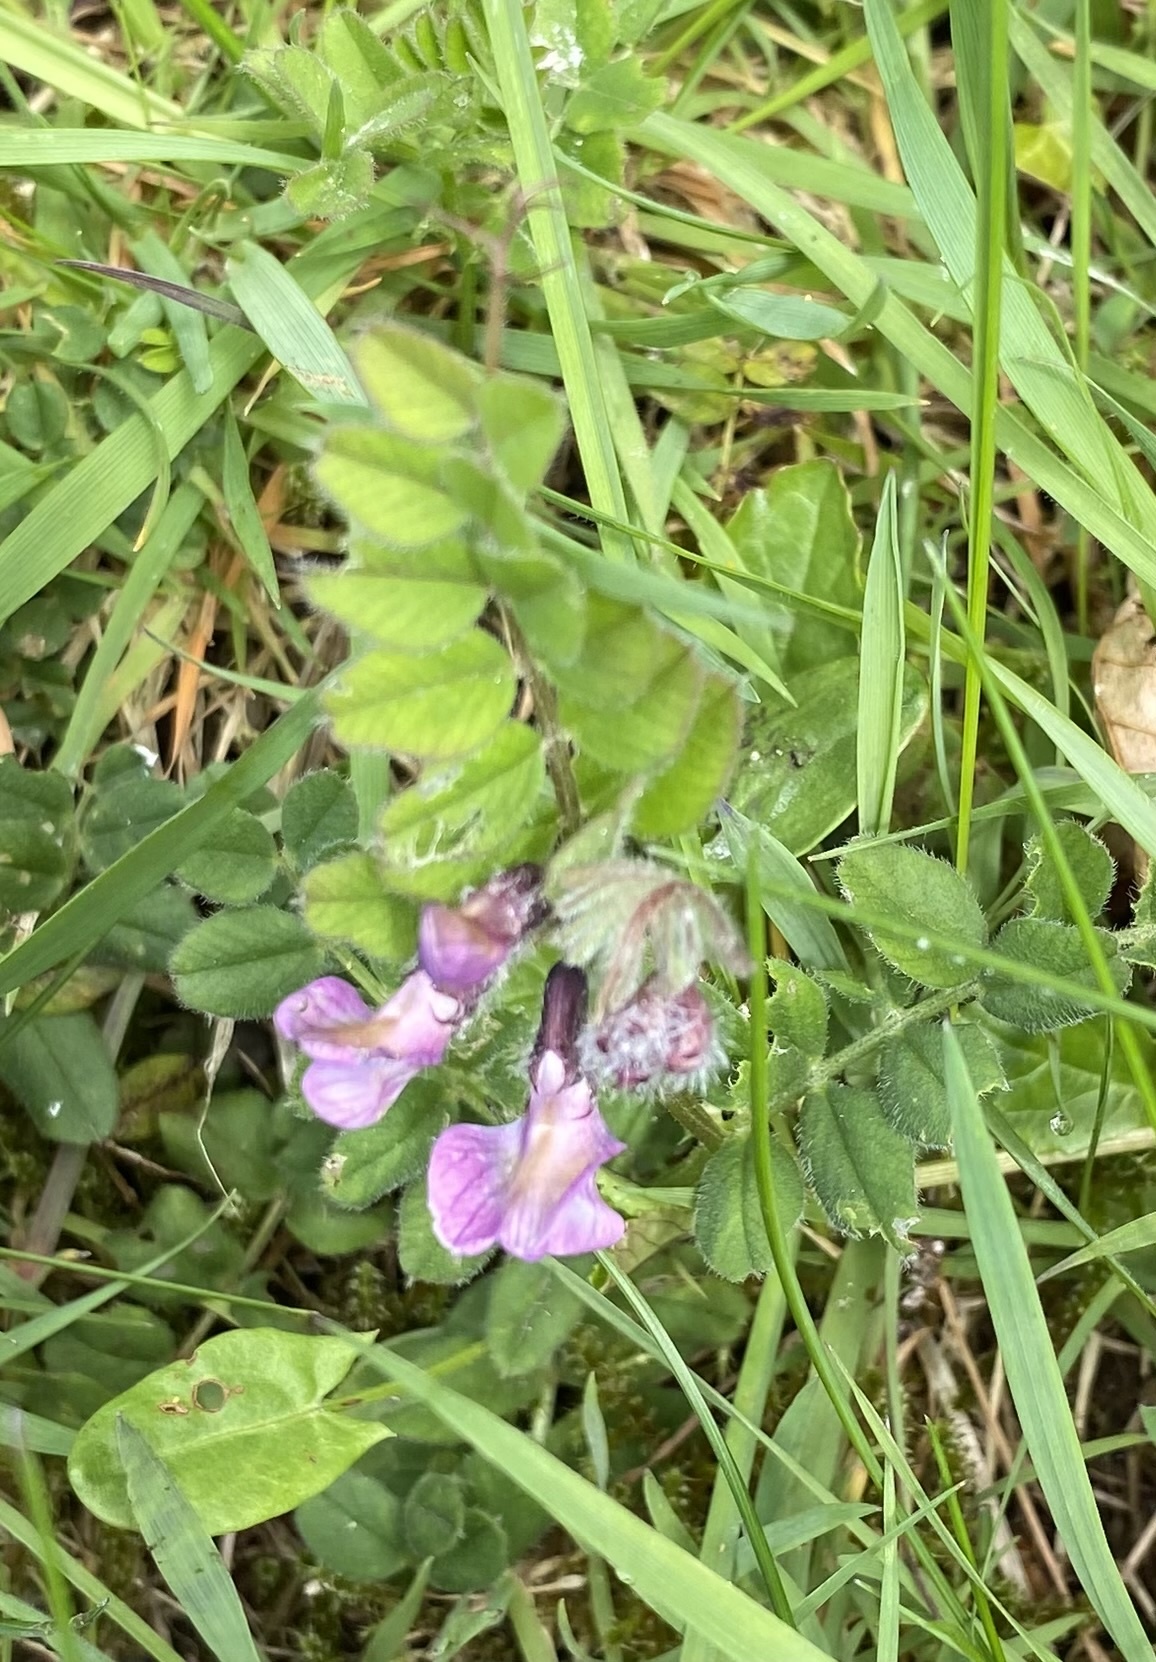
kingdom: Plantae
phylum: Tracheophyta
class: Magnoliopsida
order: Fabales
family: Fabaceae
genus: Vicia
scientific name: Vicia sepium
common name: Bush vetch
